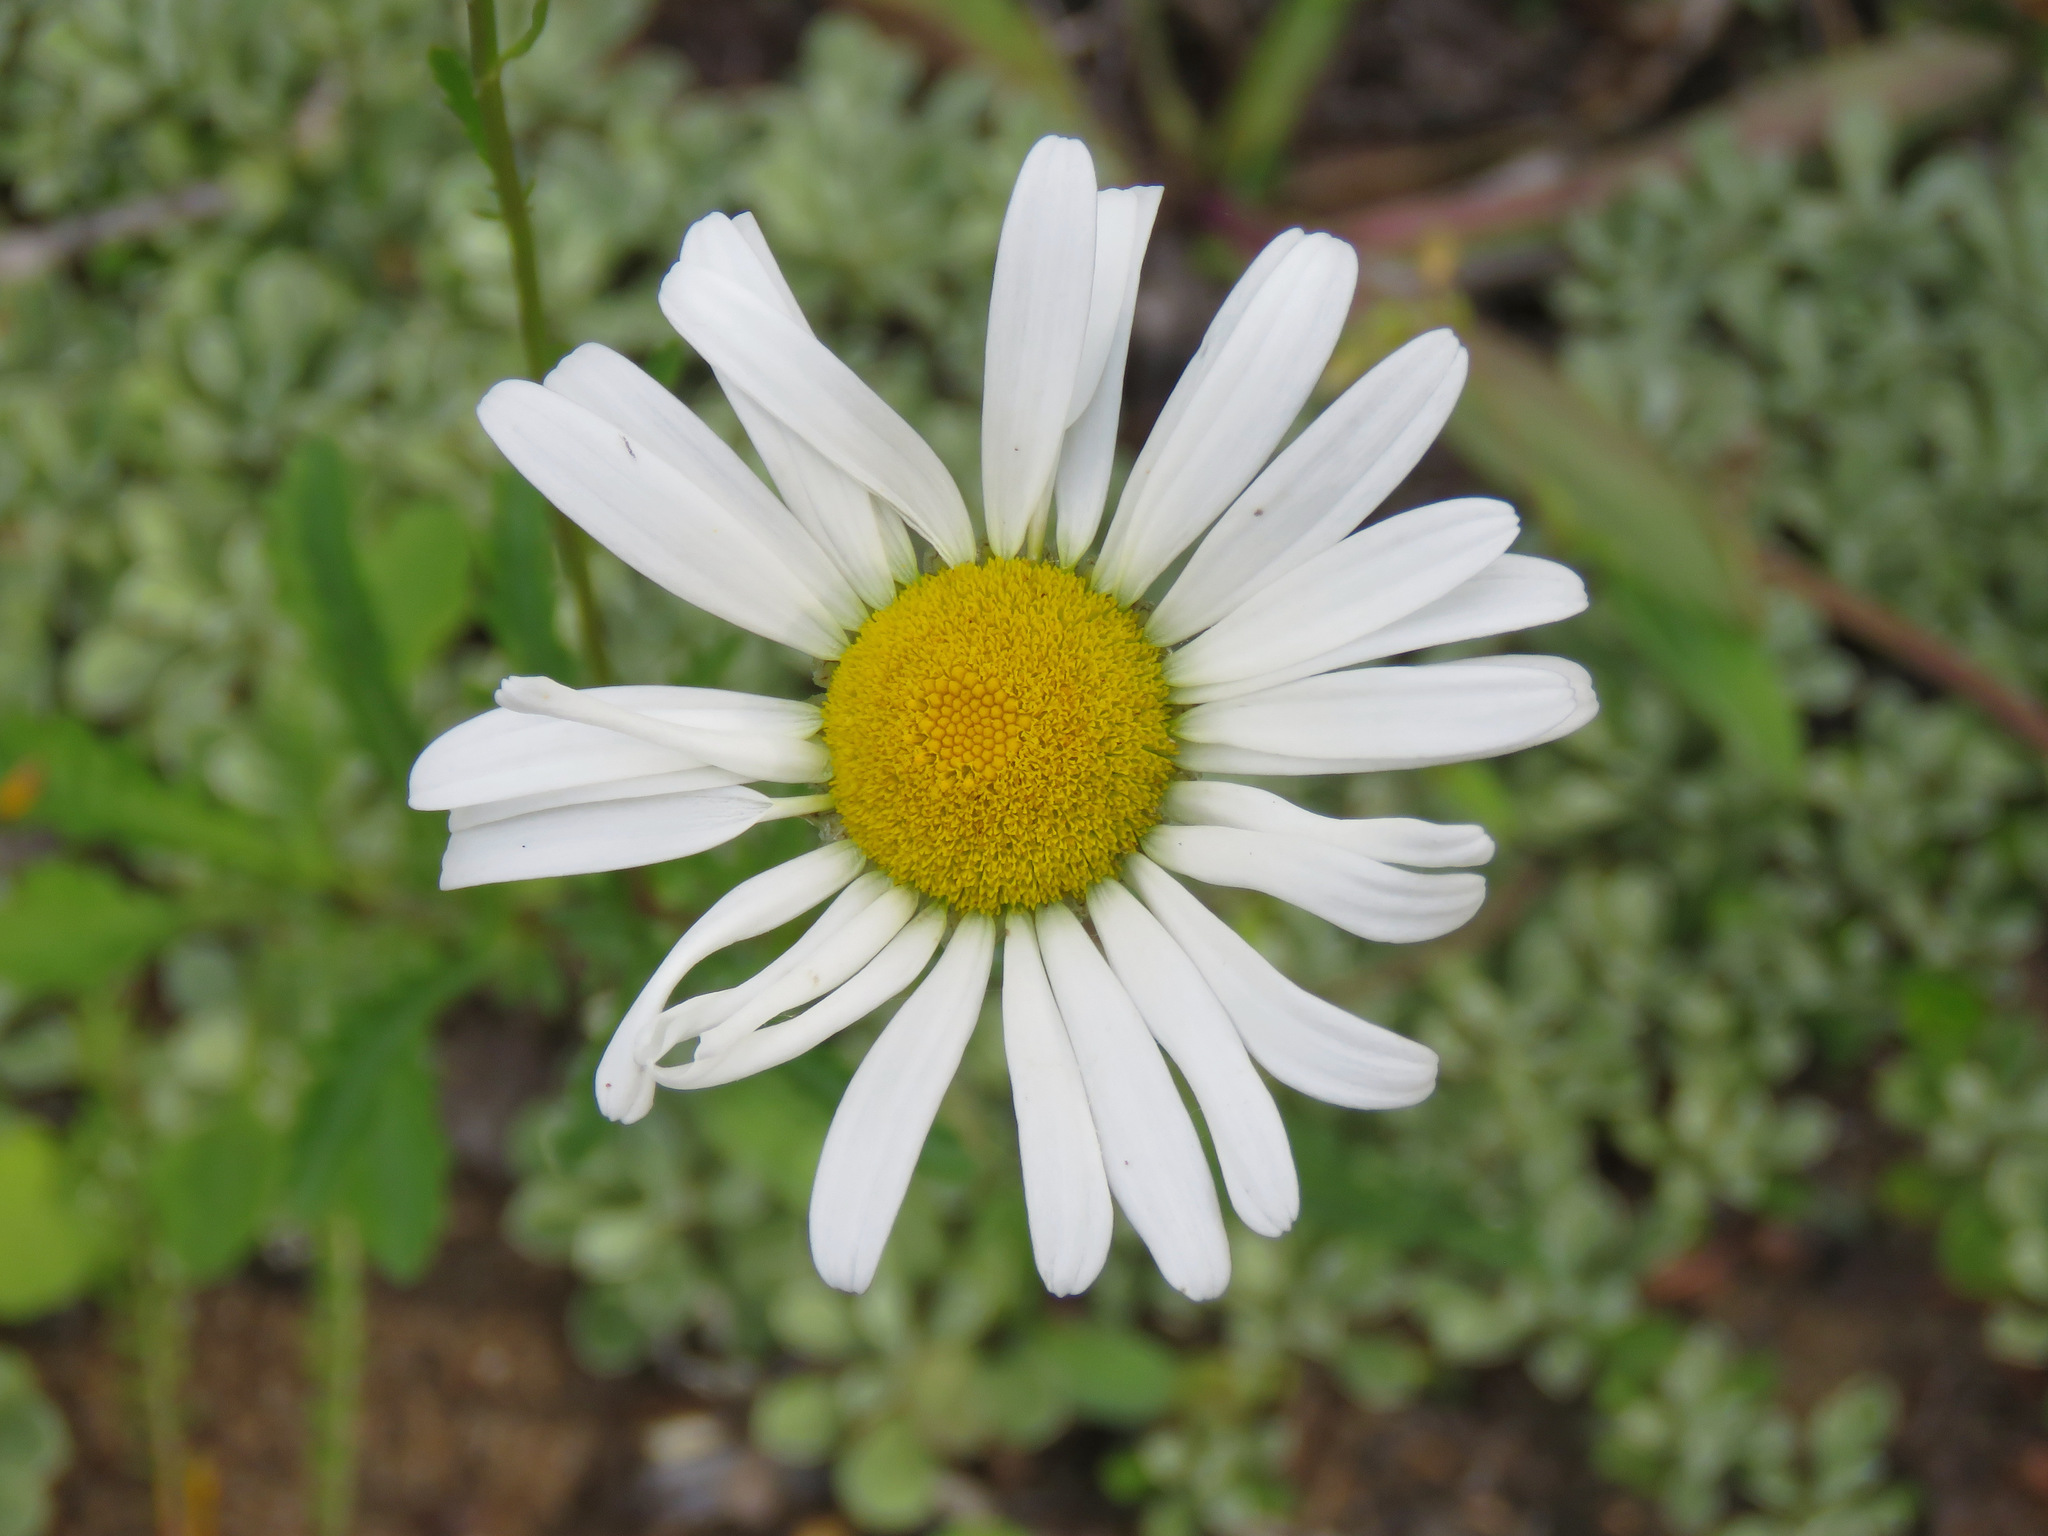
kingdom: Plantae
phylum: Tracheophyta
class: Magnoliopsida
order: Asterales
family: Asteraceae
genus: Leucanthemum
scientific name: Leucanthemum vulgare
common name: Oxeye daisy
